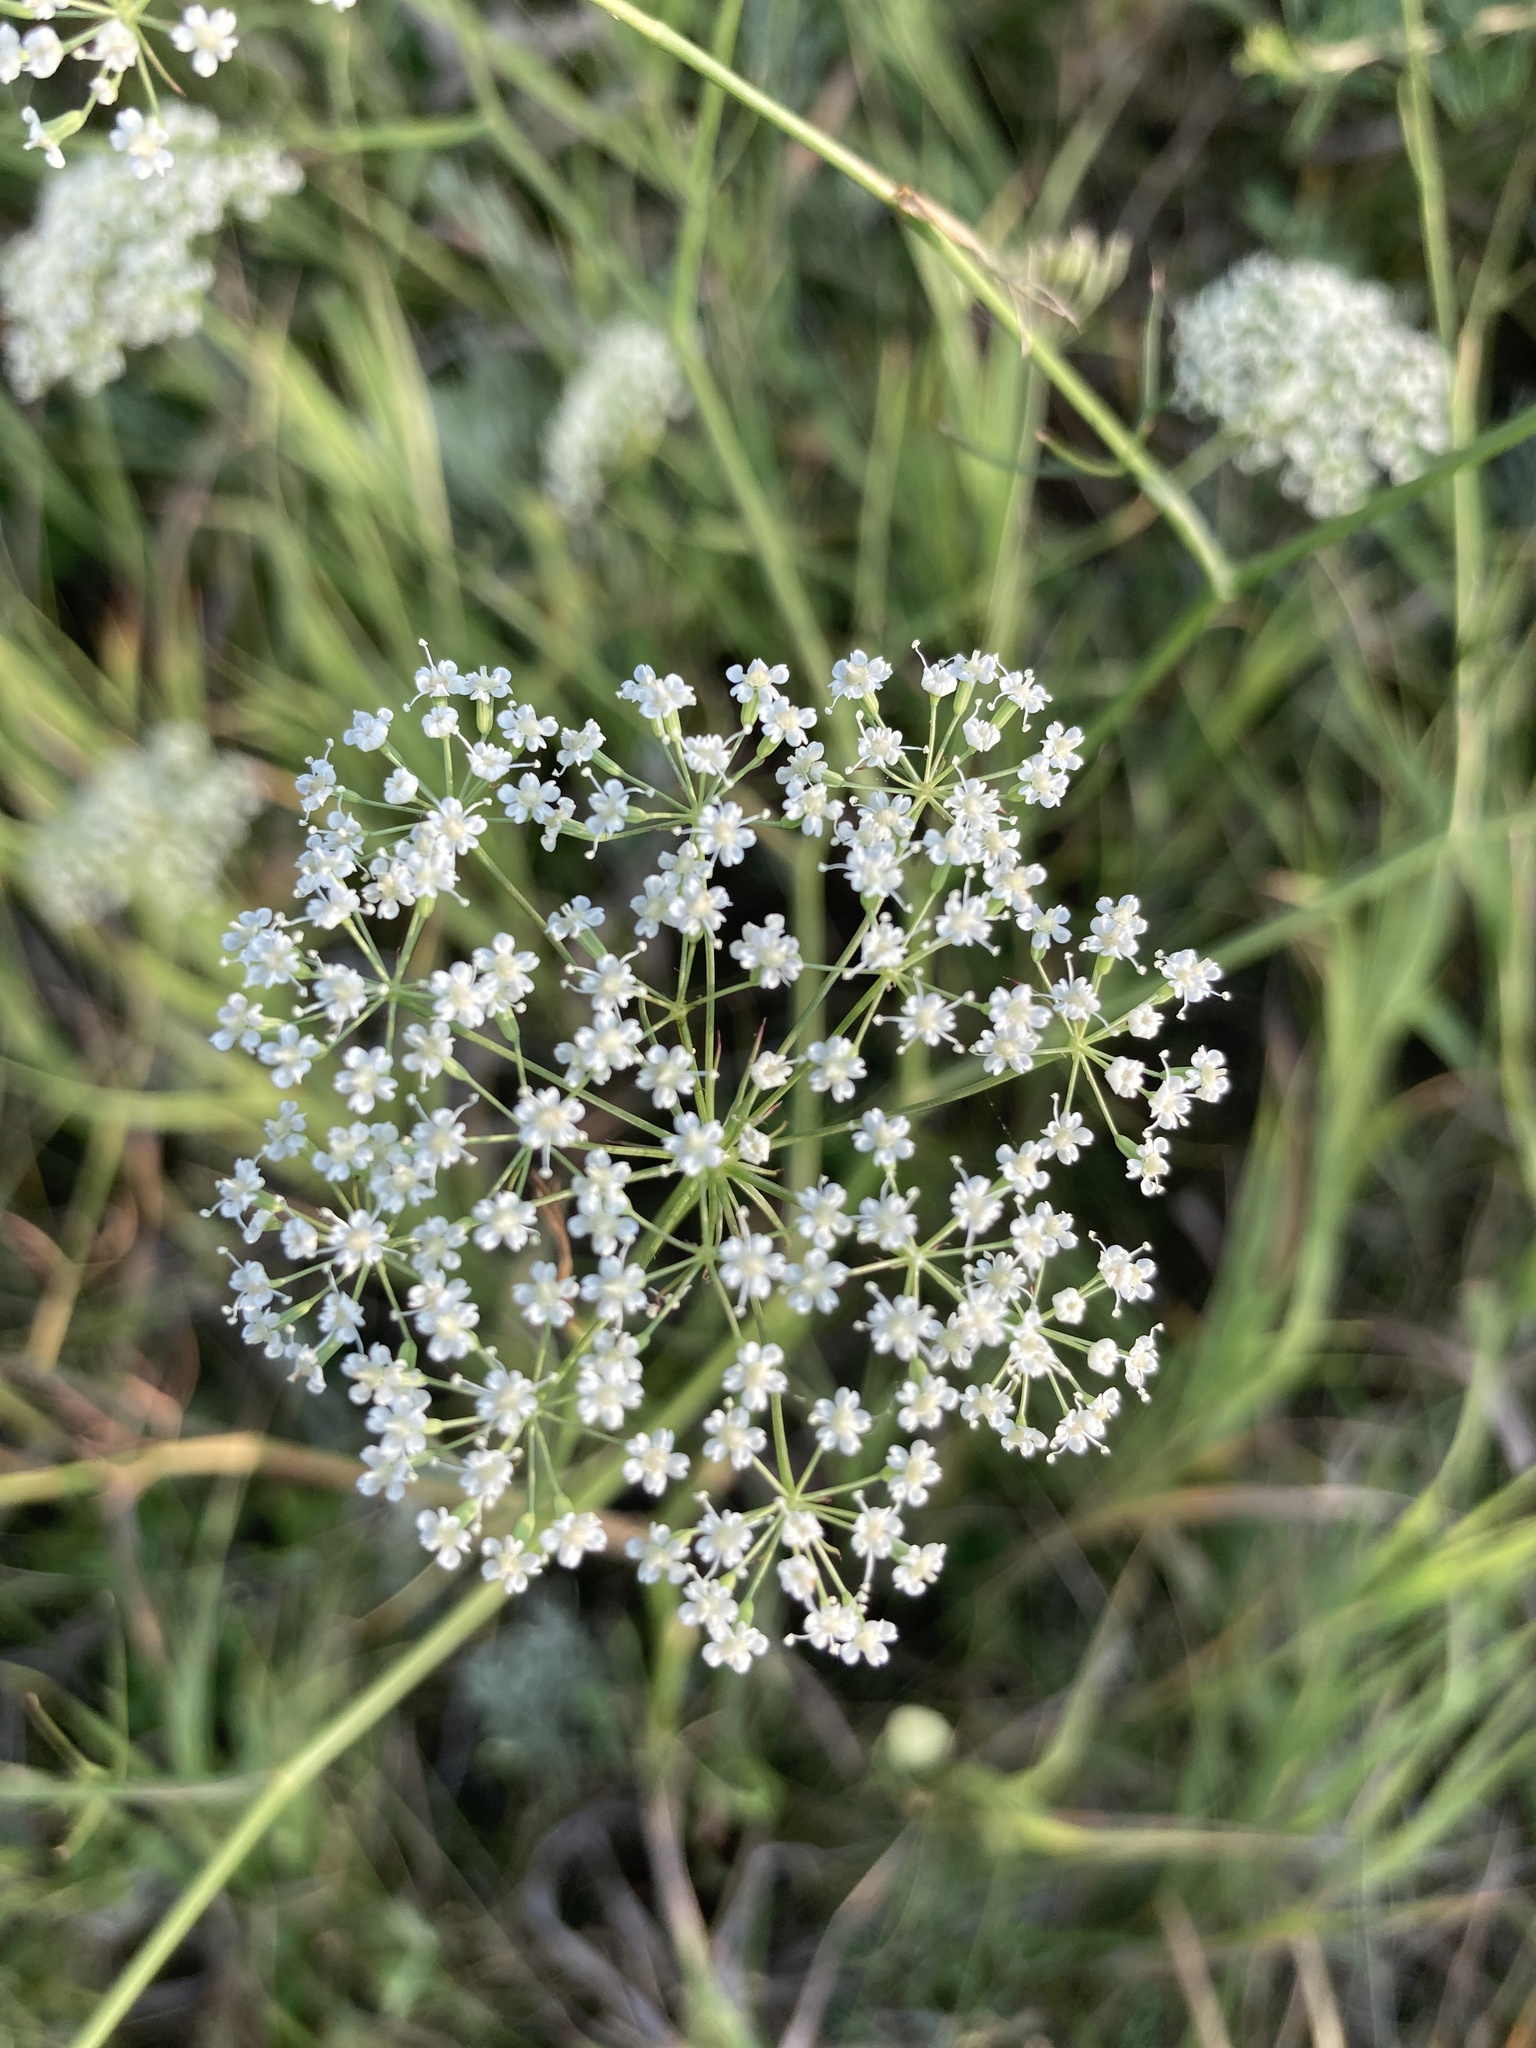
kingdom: Plantae
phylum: Tracheophyta
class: Magnoliopsida
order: Apiales
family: Apiaceae
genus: Pimpinella
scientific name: Pimpinella saxifraga
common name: Burnet-saxifrage
